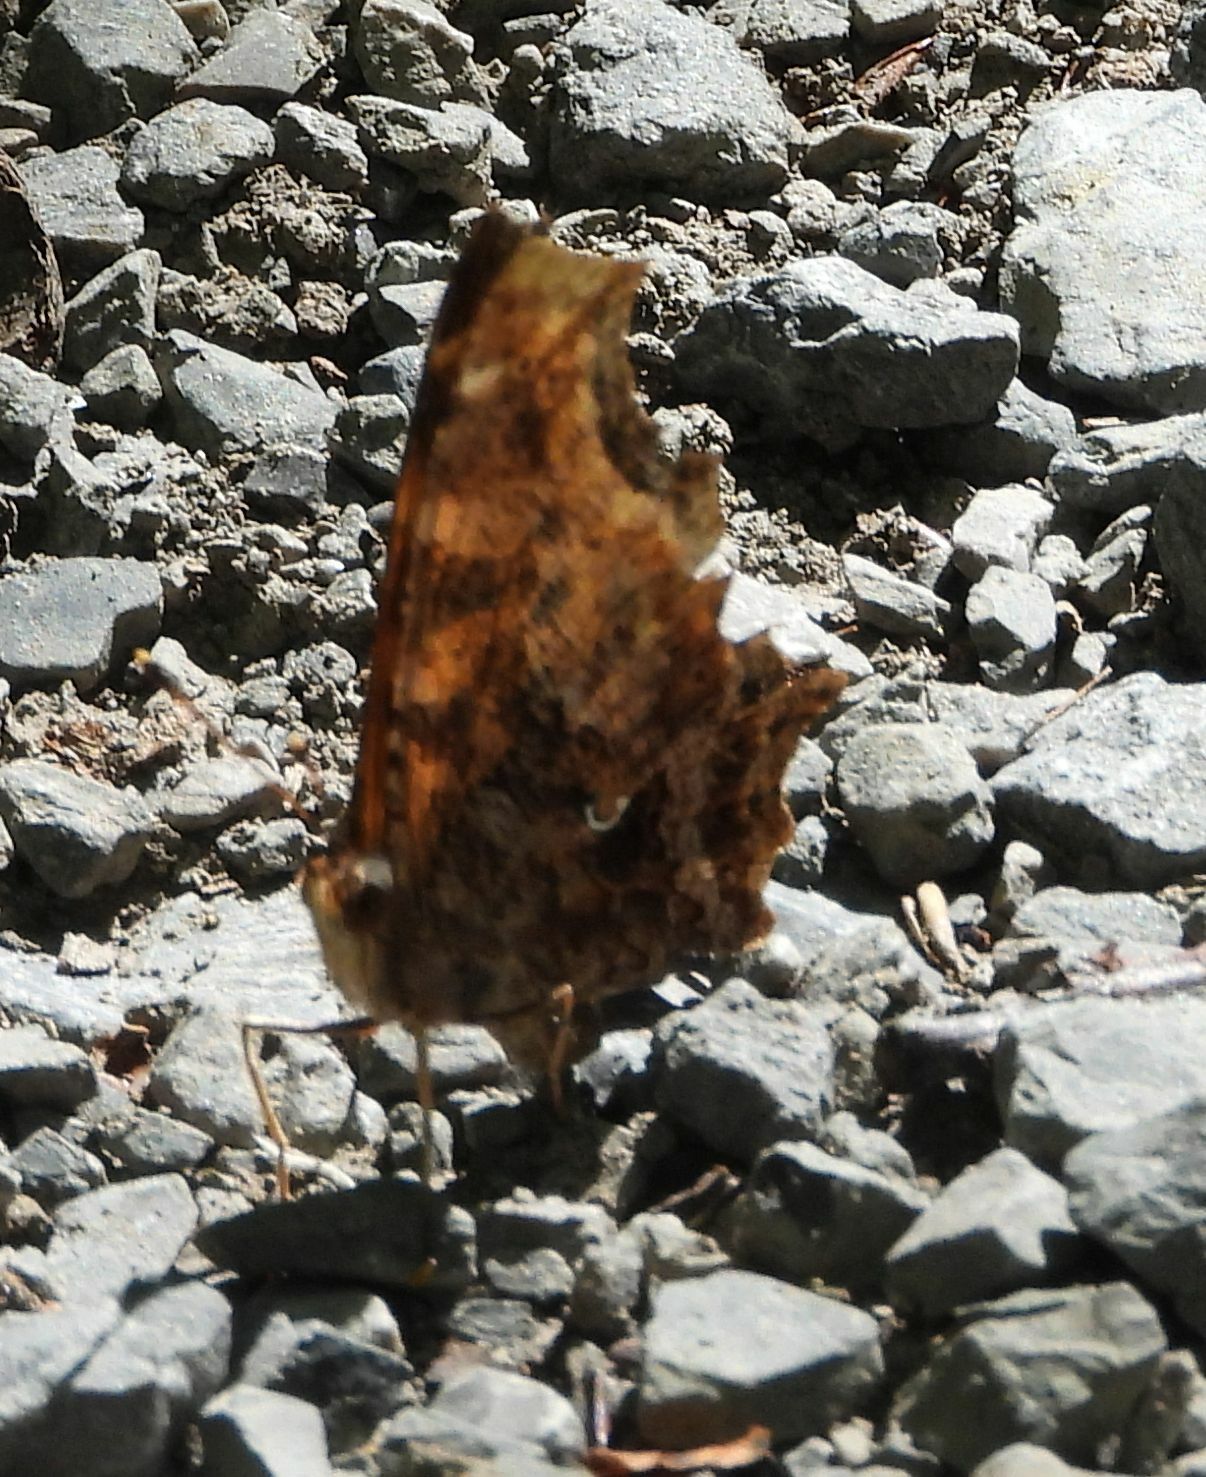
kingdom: Animalia
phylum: Arthropoda
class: Insecta
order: Lepidoptera
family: Nymphalidae
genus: Polygonia
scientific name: Polygonia comma
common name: Eastern comma
